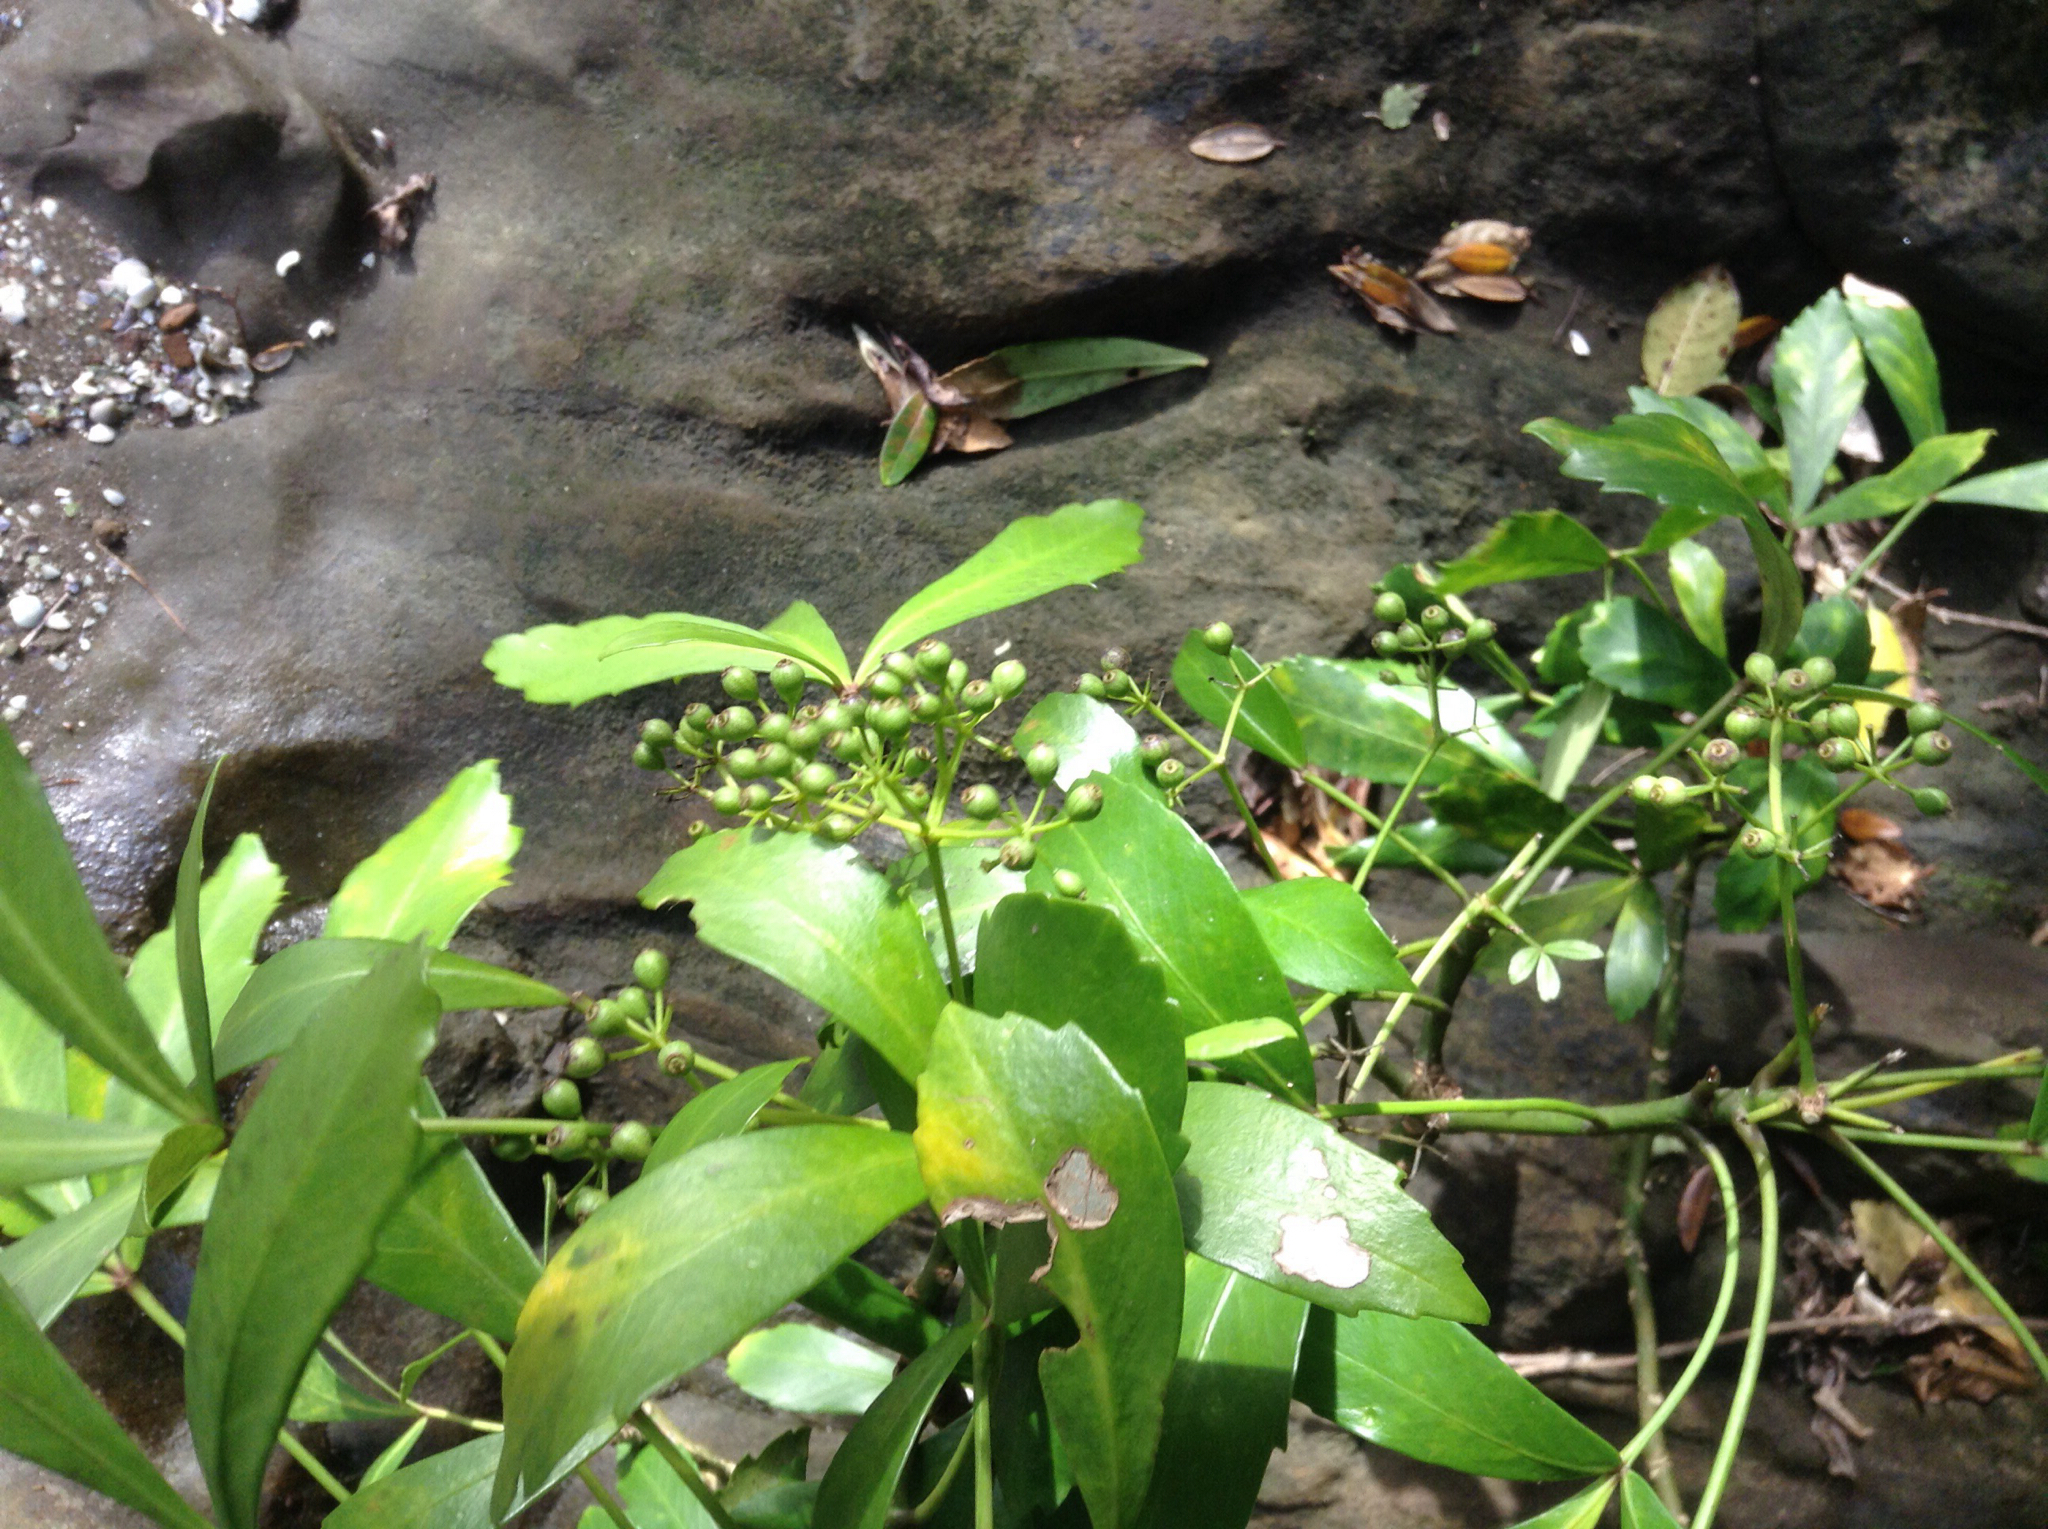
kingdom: Plantae
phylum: Tracheophyta
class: Magnoliopsida
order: Apiales
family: Araliaceae
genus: Pseudopanax
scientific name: Pseudopanax lessonii
